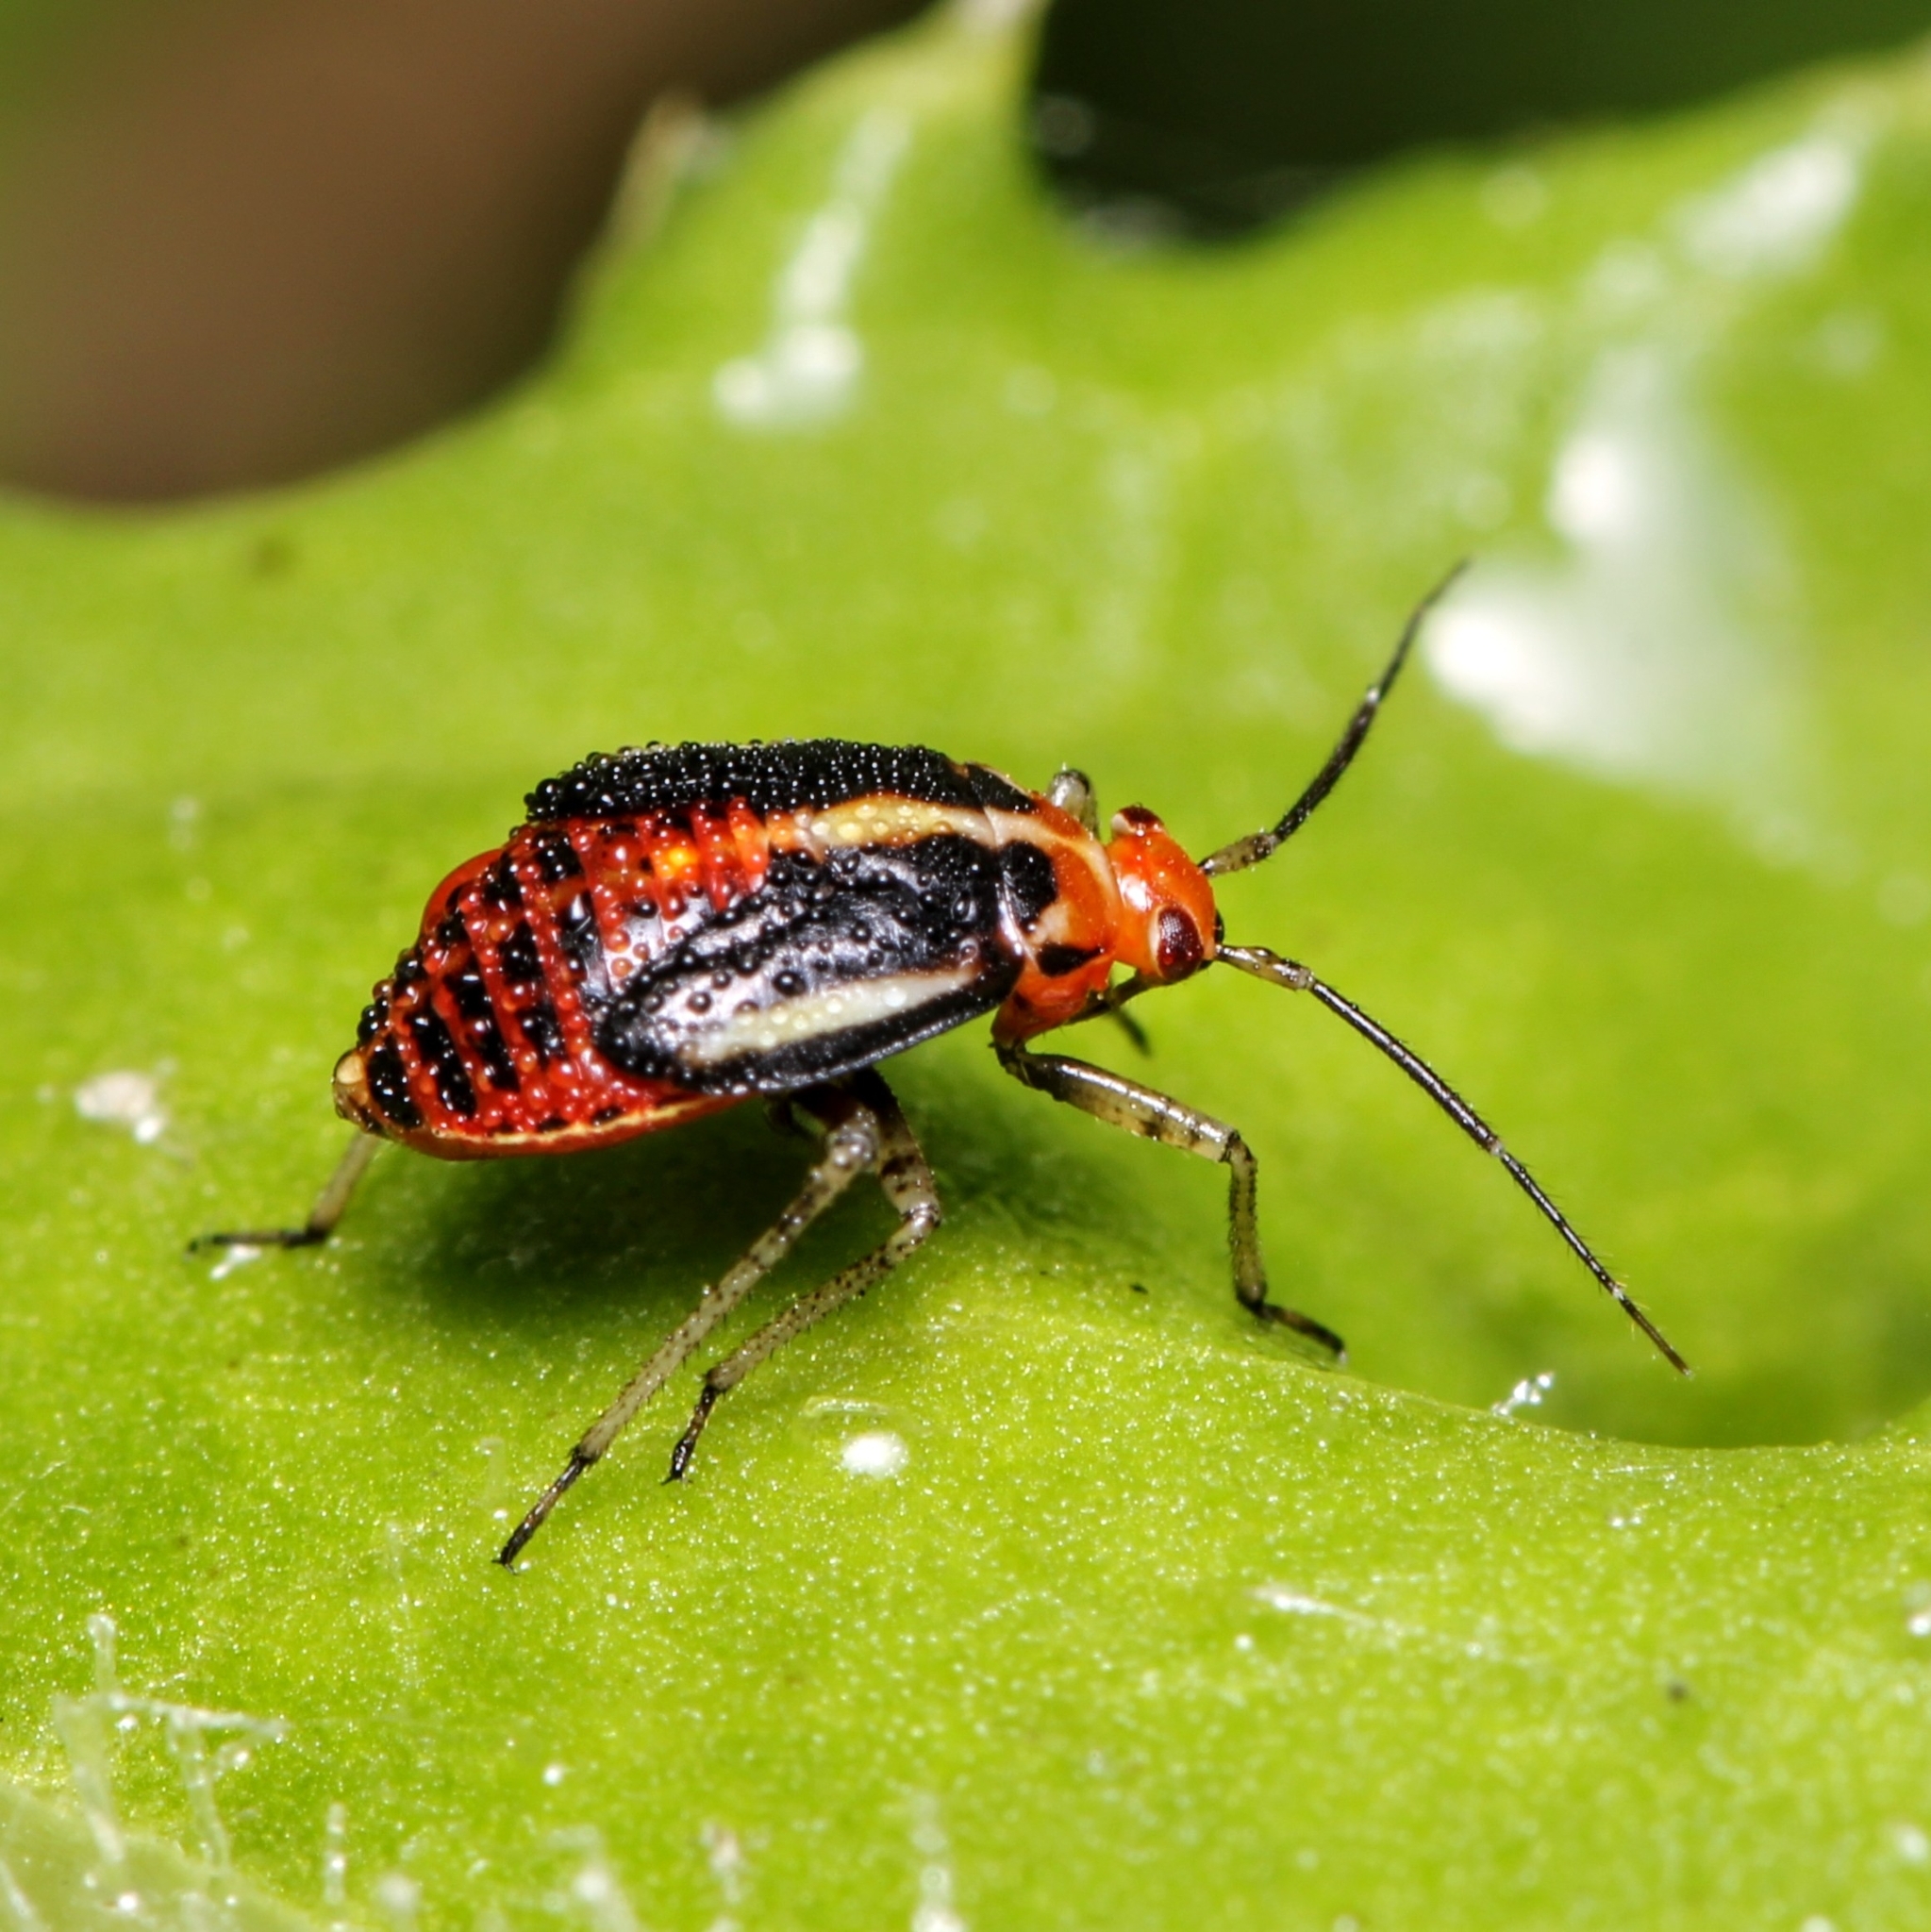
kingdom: Animalia
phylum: Arthropoda
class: Insecta
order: Hemiptera
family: Miridae
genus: Poecilocapsus
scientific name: Poecilocapsus lineatus
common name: Four-lined plant bug
